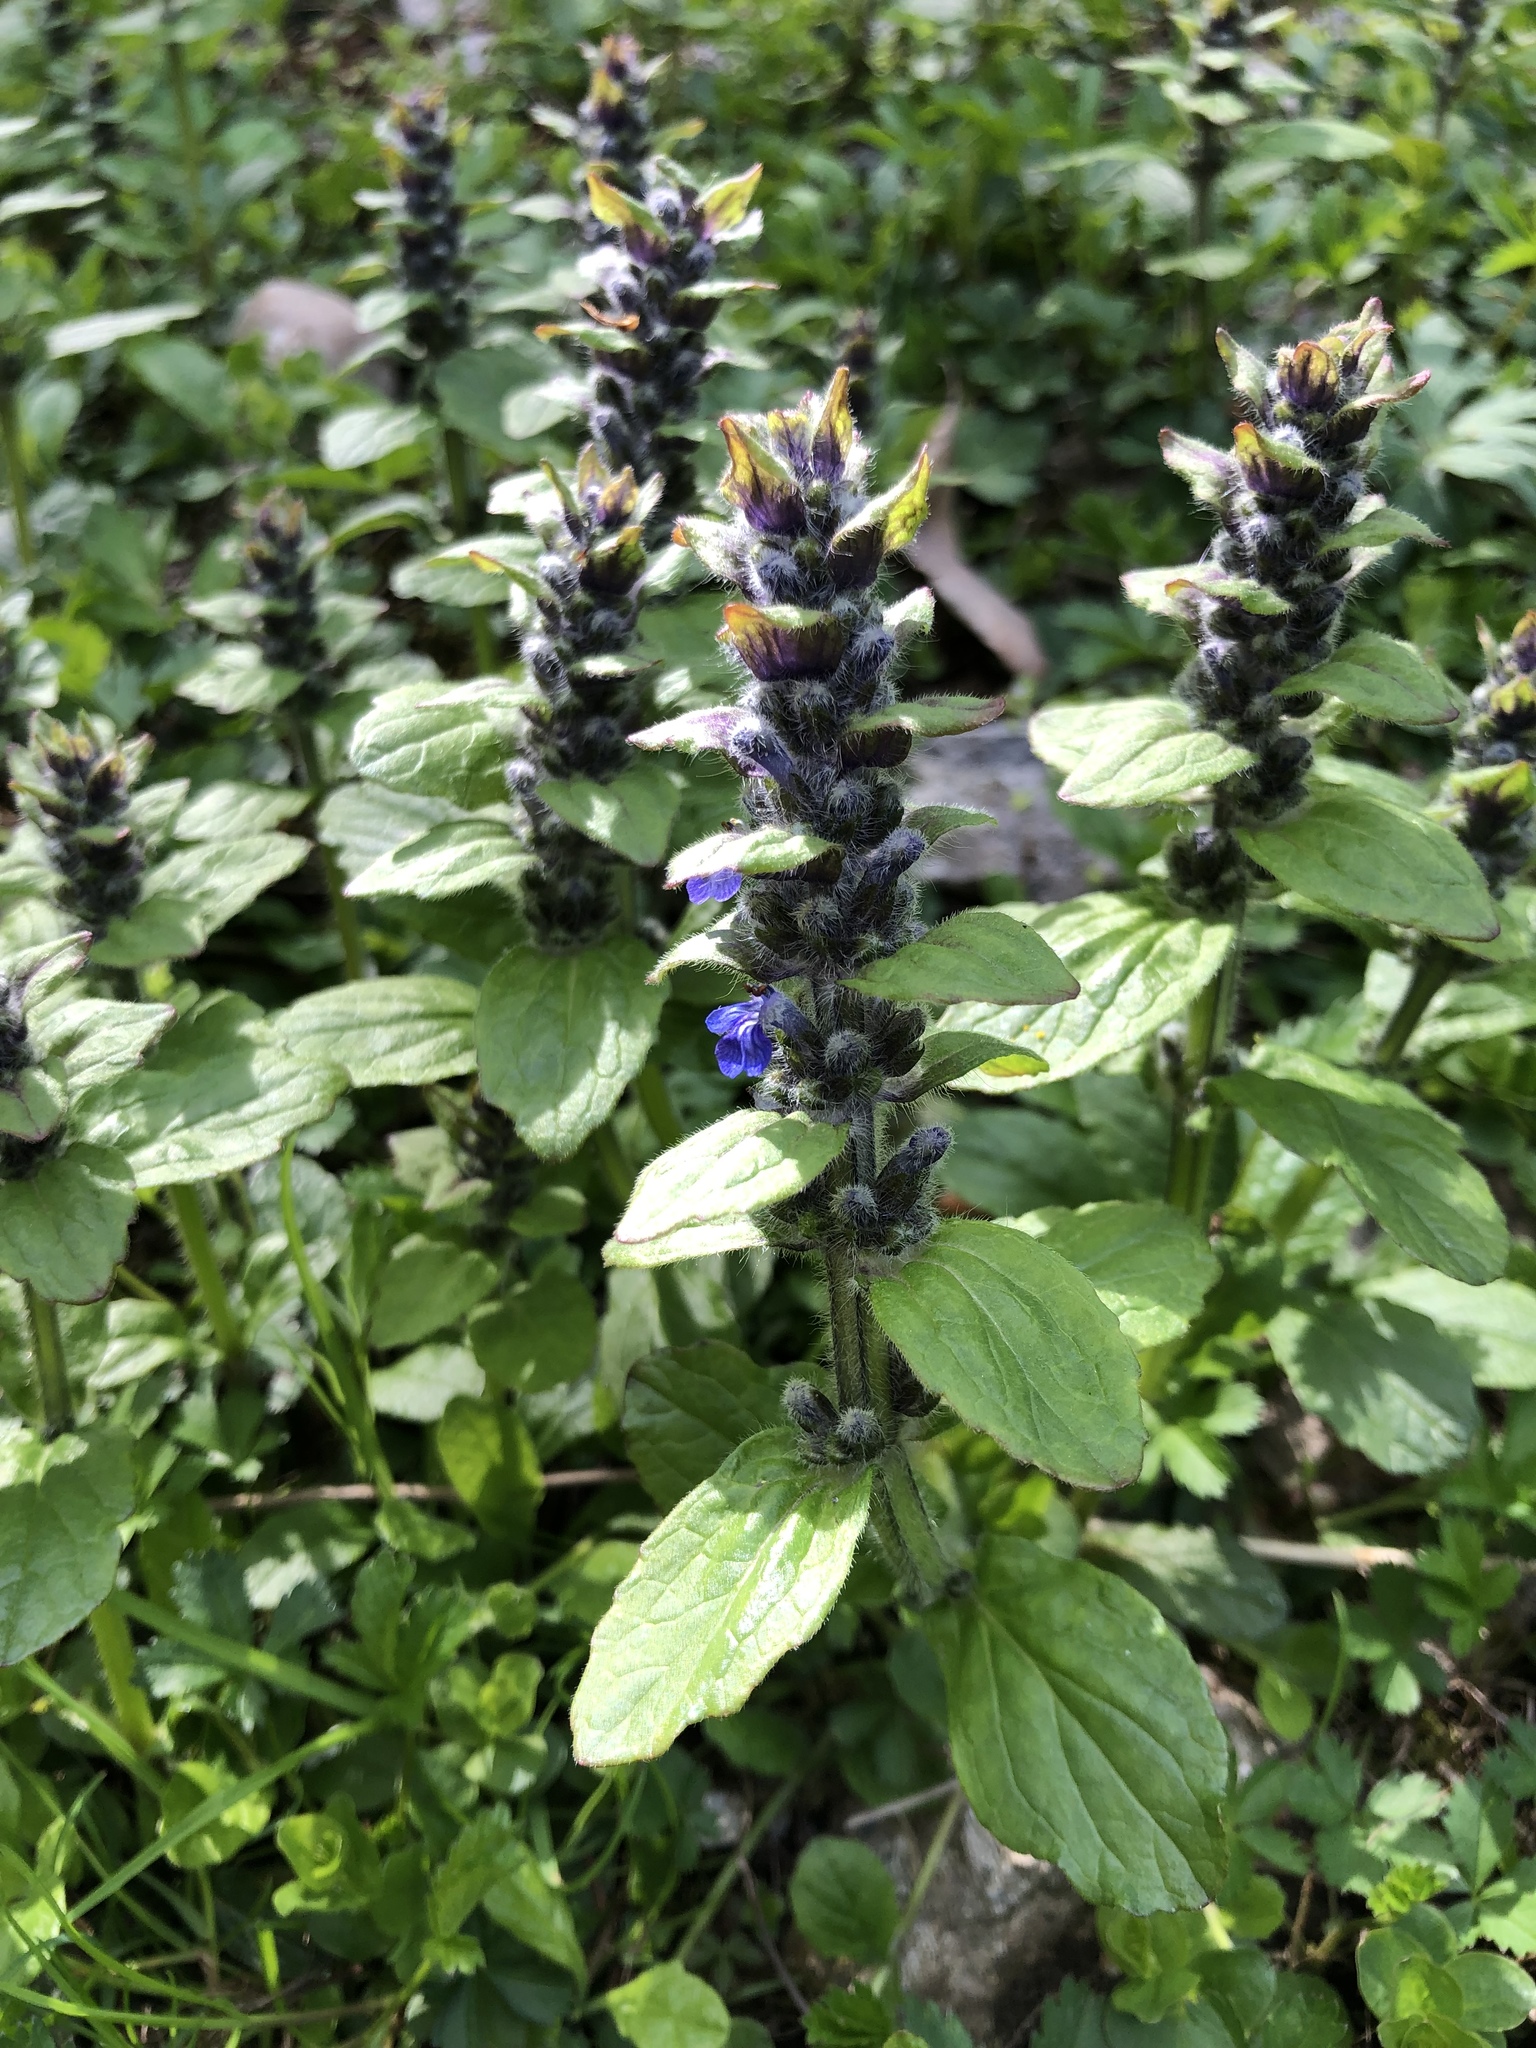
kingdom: Plantae
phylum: Tracheophyta
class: Magnoliopsida
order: Lamiales
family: Lamiaceae
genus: Ajuga
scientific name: Ajuga reptans
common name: Bugle
